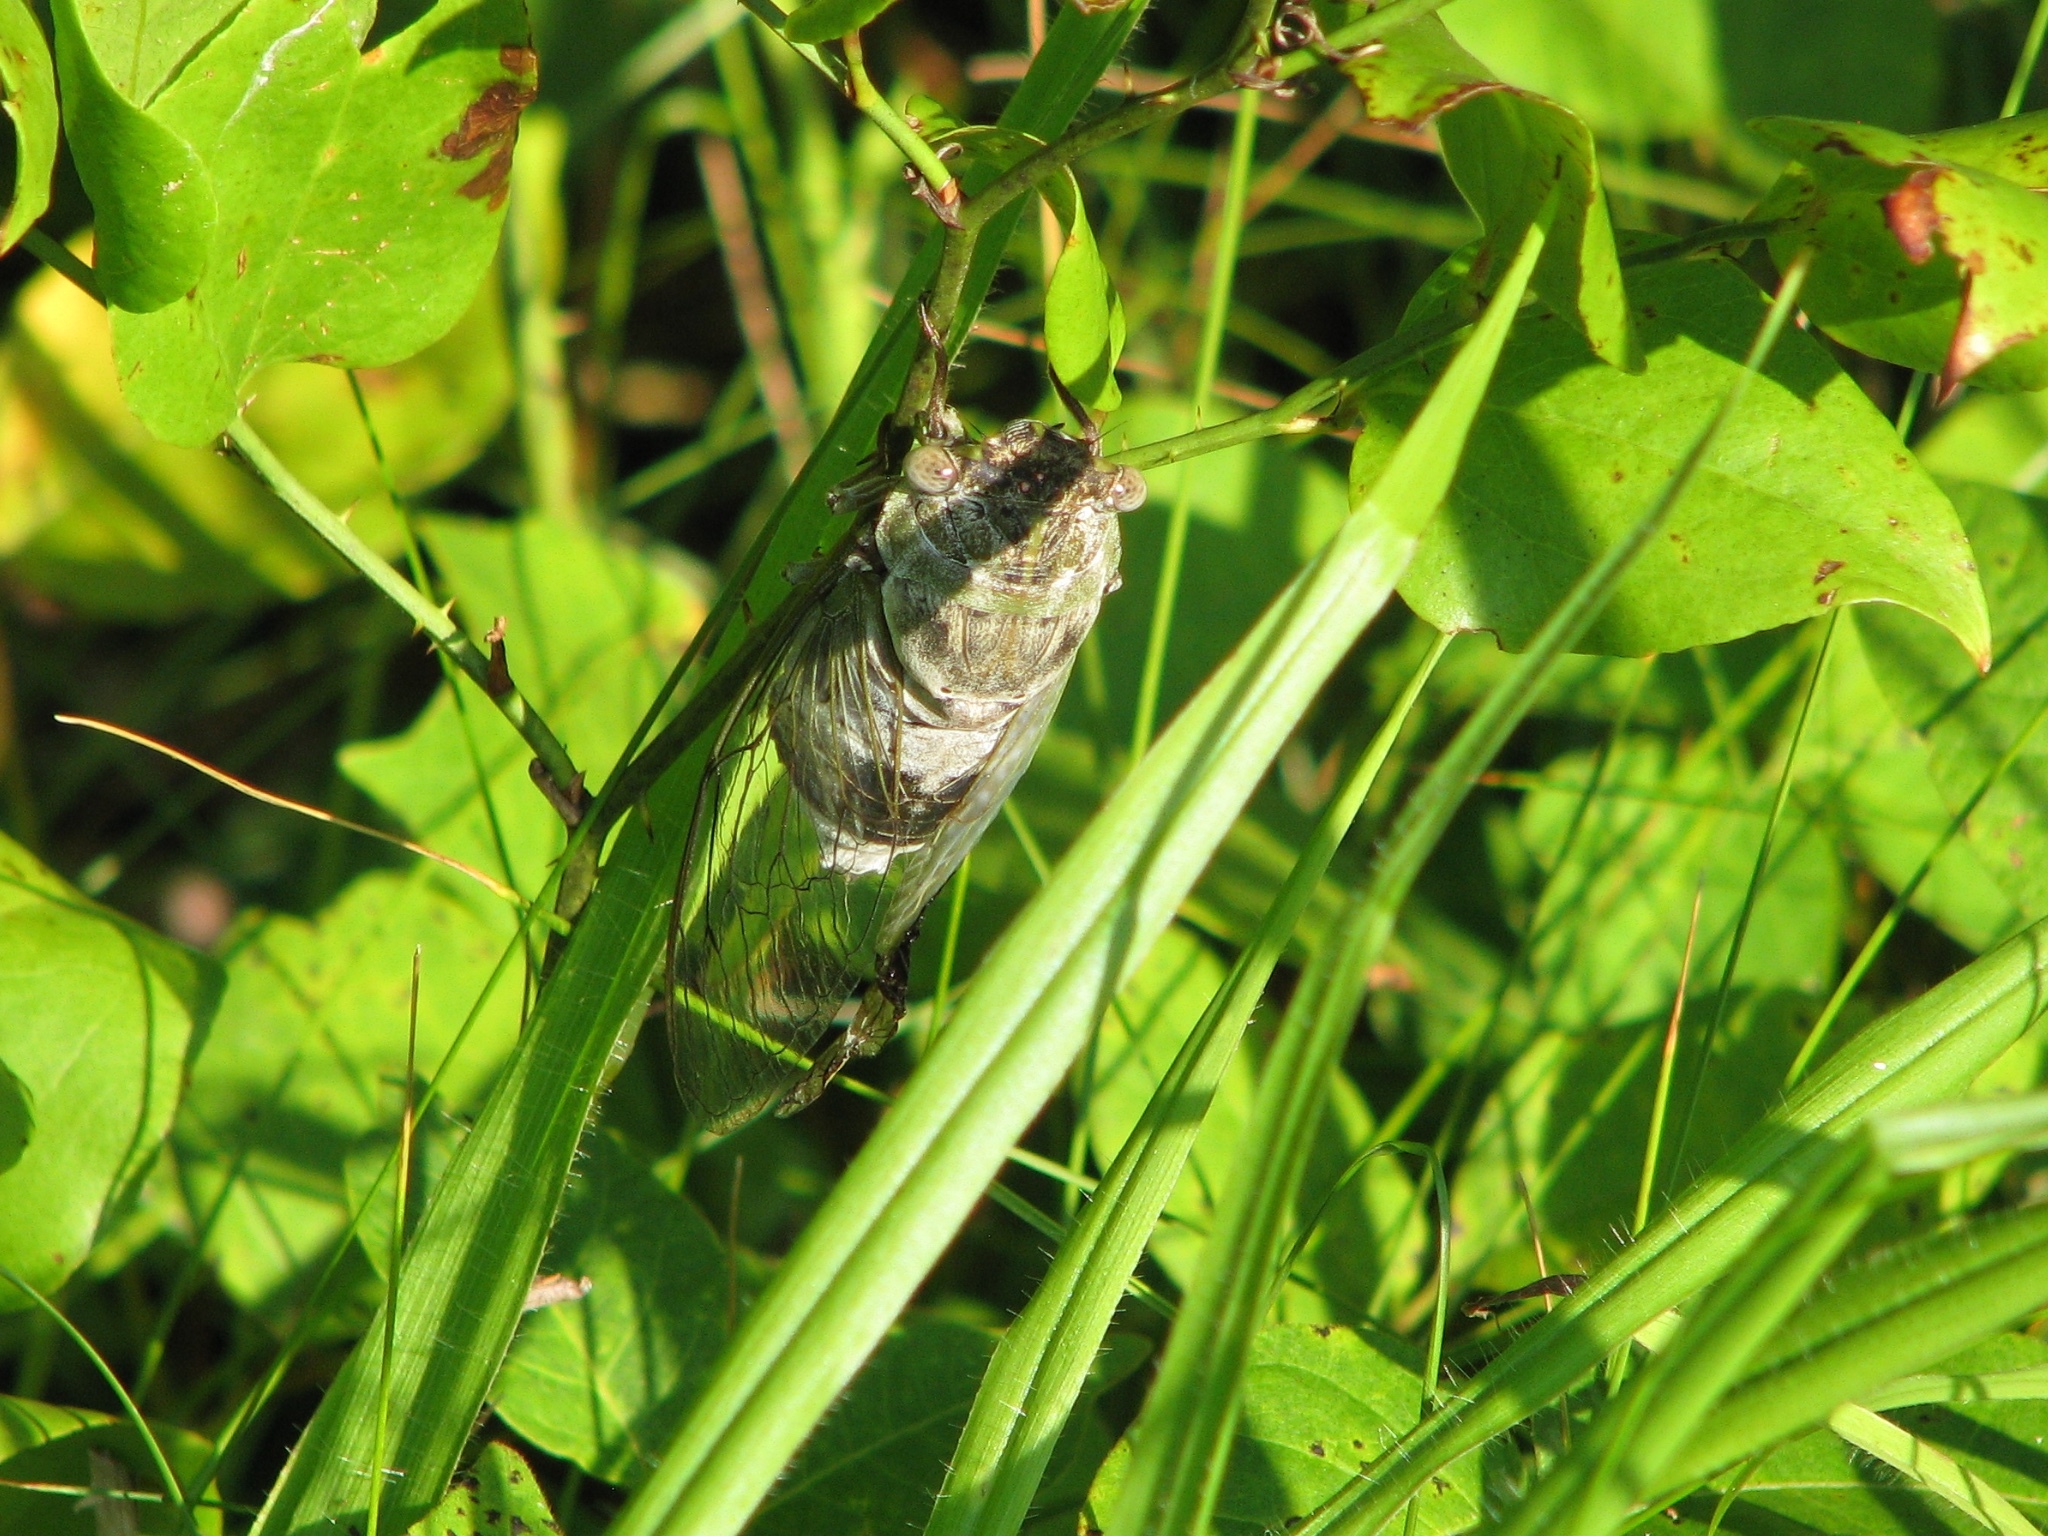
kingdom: Animalia
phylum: Arthropoda
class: Insecta
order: Hemiptera
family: Cicadidae
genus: Diceroprocta
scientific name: Diceroprocta grossa
